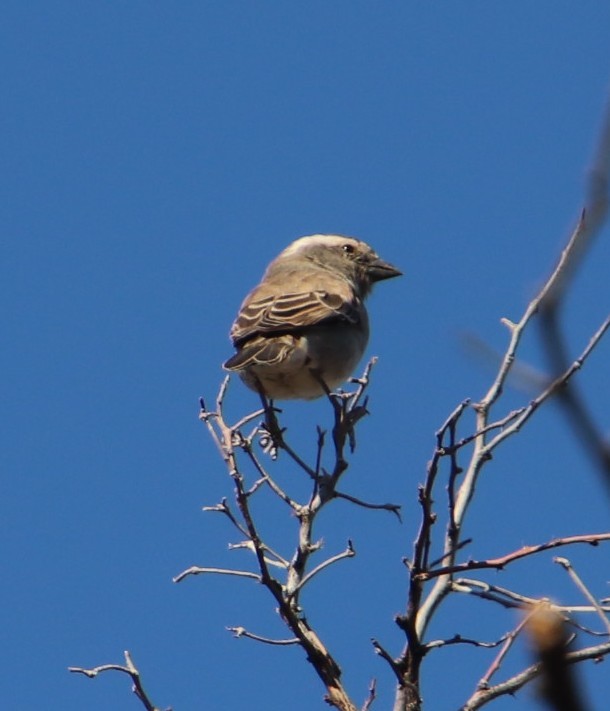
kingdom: Animalia
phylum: Chordata
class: Aves
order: Passeriformes
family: Passeridae
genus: Passer
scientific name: Passer melanurus
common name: Cape sparrow
